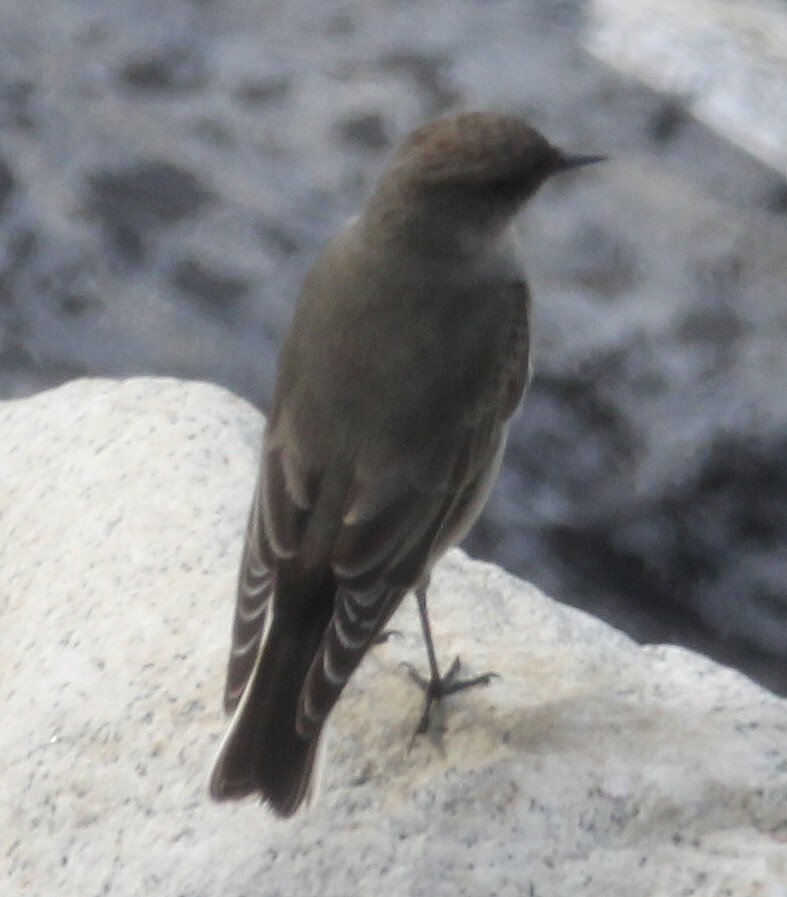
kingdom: Animalia
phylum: Chordata
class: Aves
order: Passeriformes
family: Tyrannidae
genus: Muscisaxicola
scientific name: Muscisaxicola maclovianus
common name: Dark-faced ground tyrant
